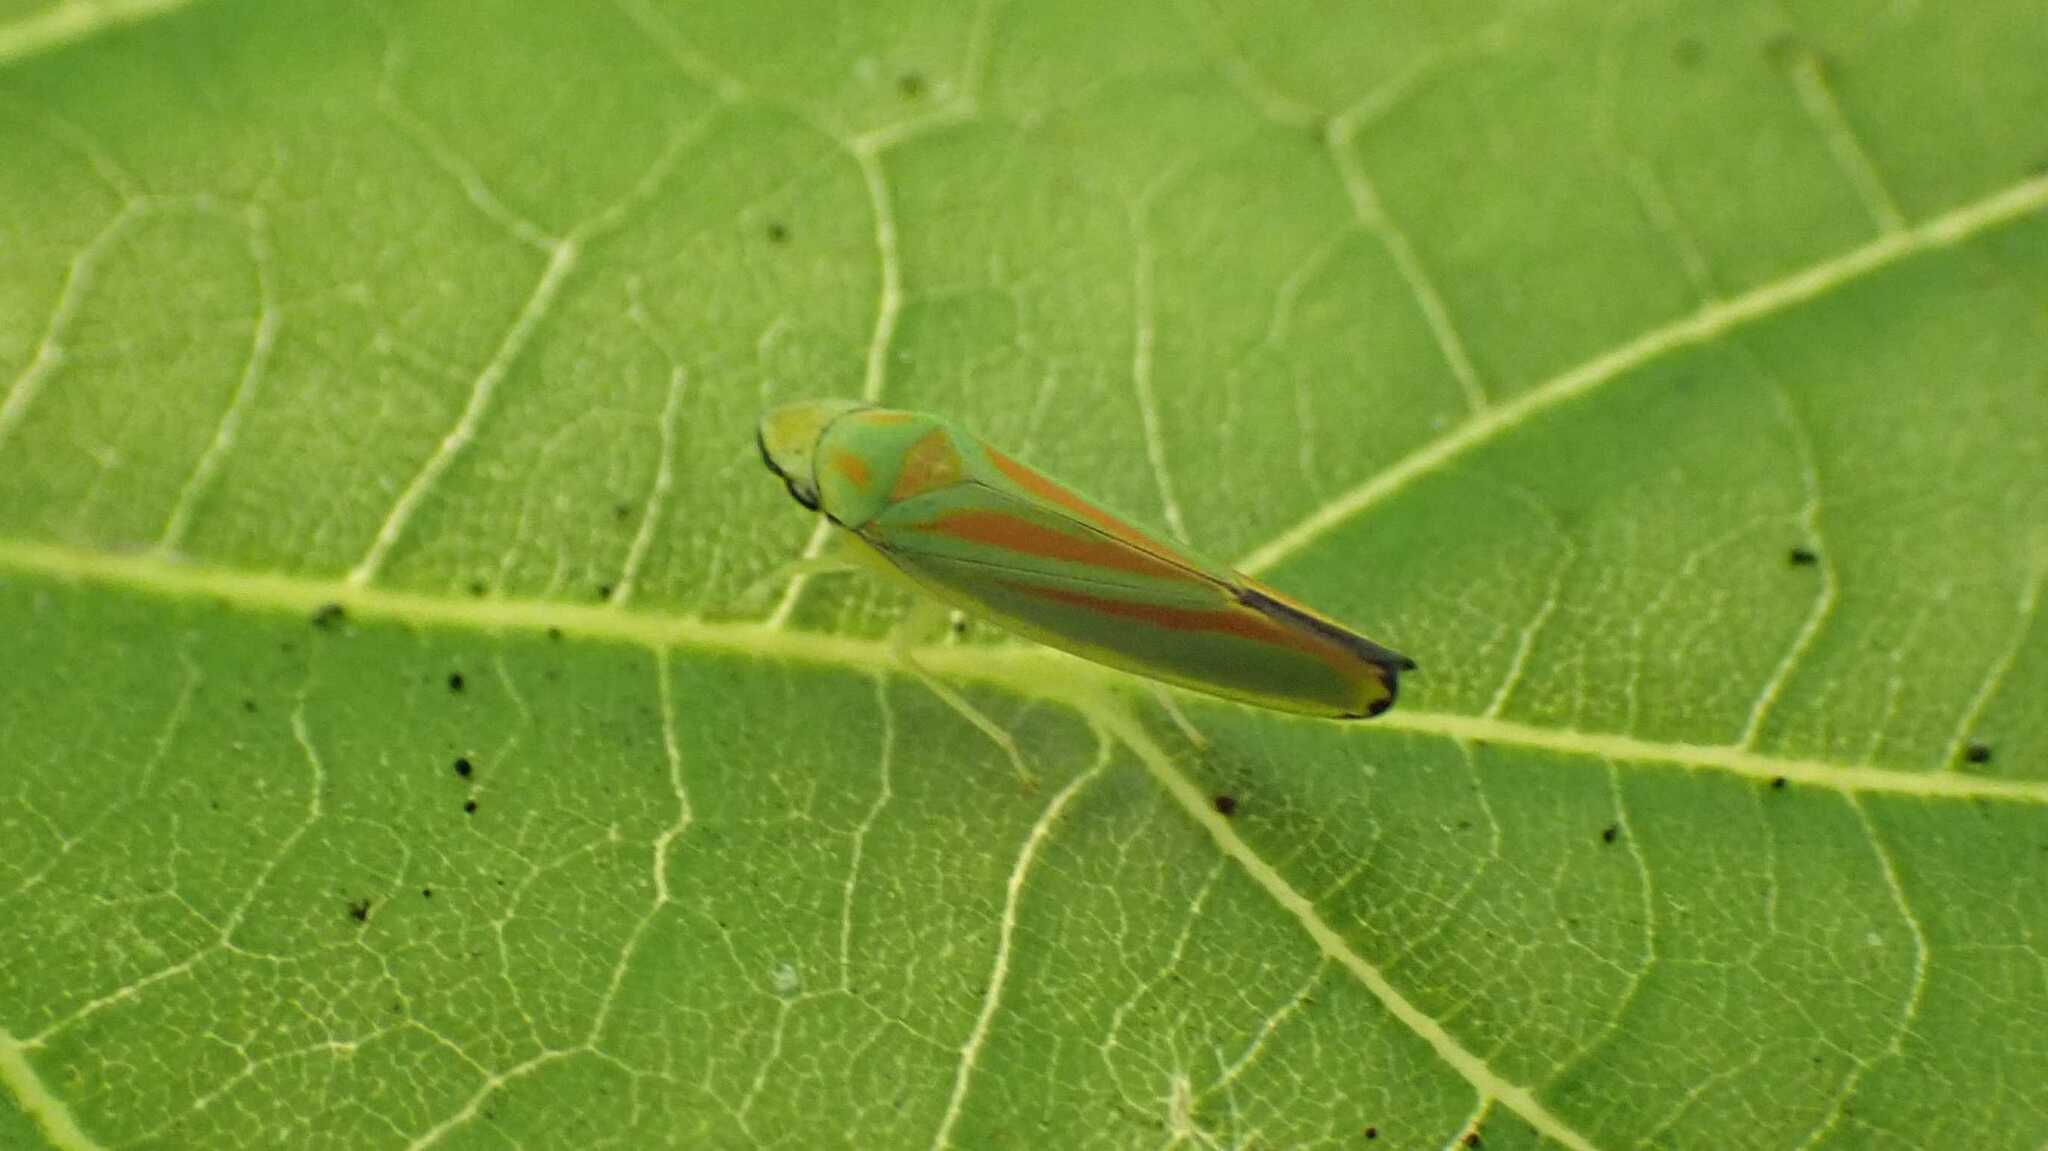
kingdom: Animalia
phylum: Arthropoda
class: Insecta
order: Hemiptera
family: Cicadellidae
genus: Graphocephala
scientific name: Graphocephala fennahi
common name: Rhododendron leafhopper
